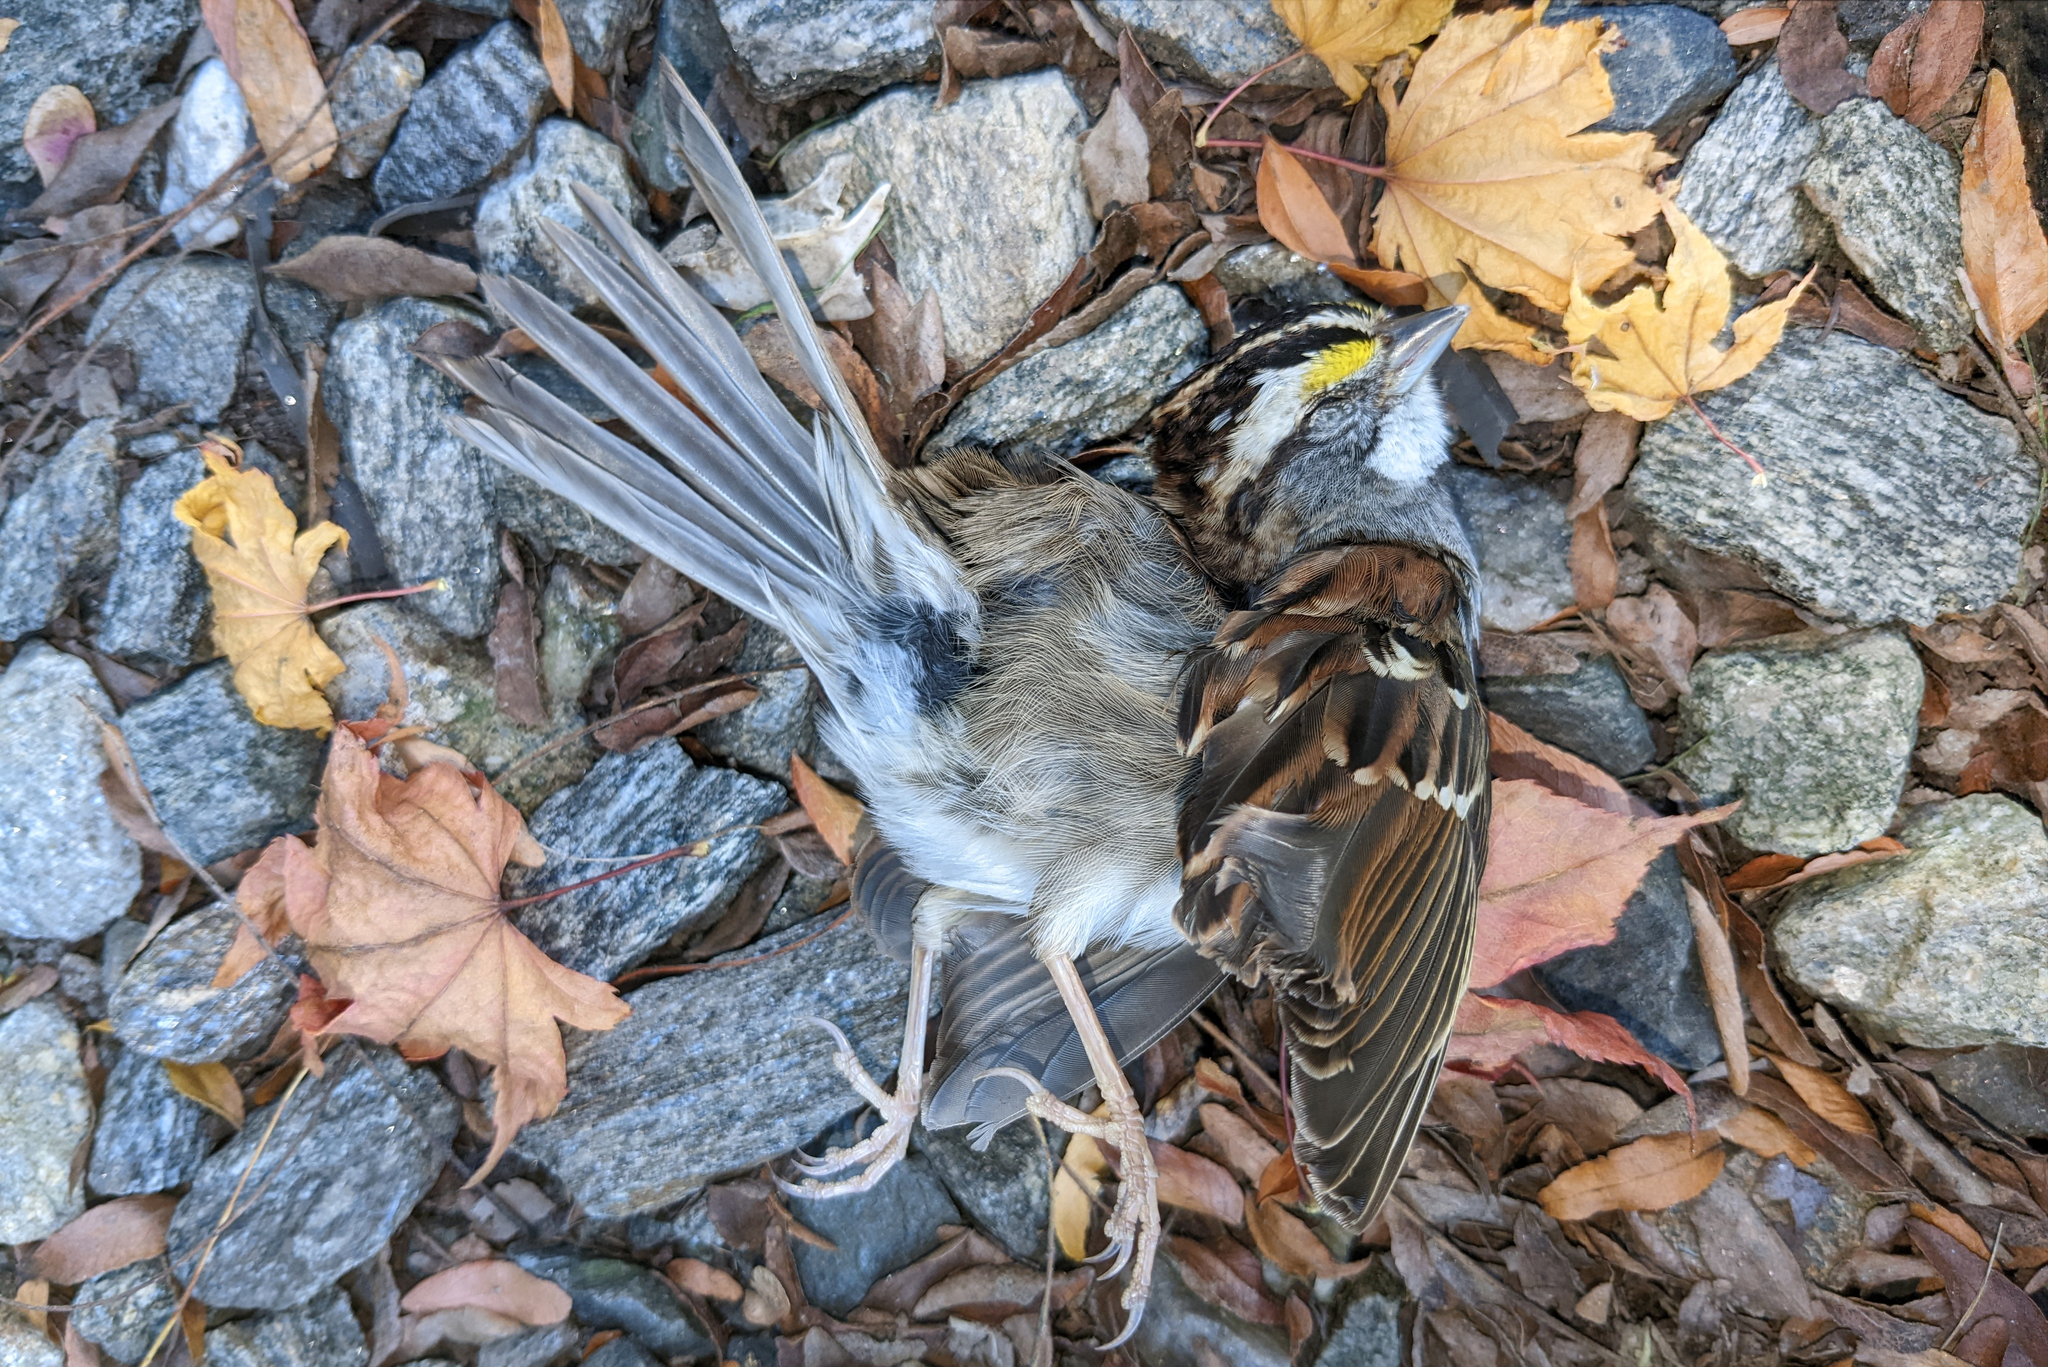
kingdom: Animalia
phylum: Chordata
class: Aves
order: Passeriformes
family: Passerellidae
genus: Zonotrichia
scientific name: Zonotrichia albicollis
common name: White-throated sparrow
